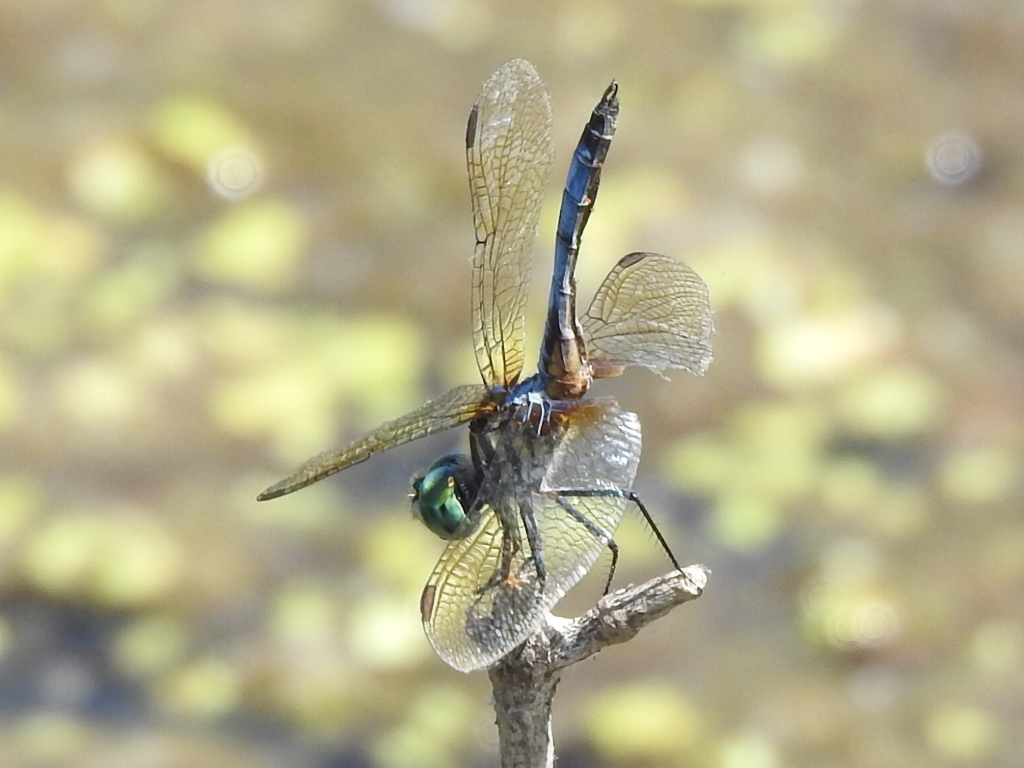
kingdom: Animalia
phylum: Arthropoda
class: Insecta
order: Odonata
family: Libellulidae
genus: Pachydiplax
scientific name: Pachydiplax longipennis
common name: Blue dasher
